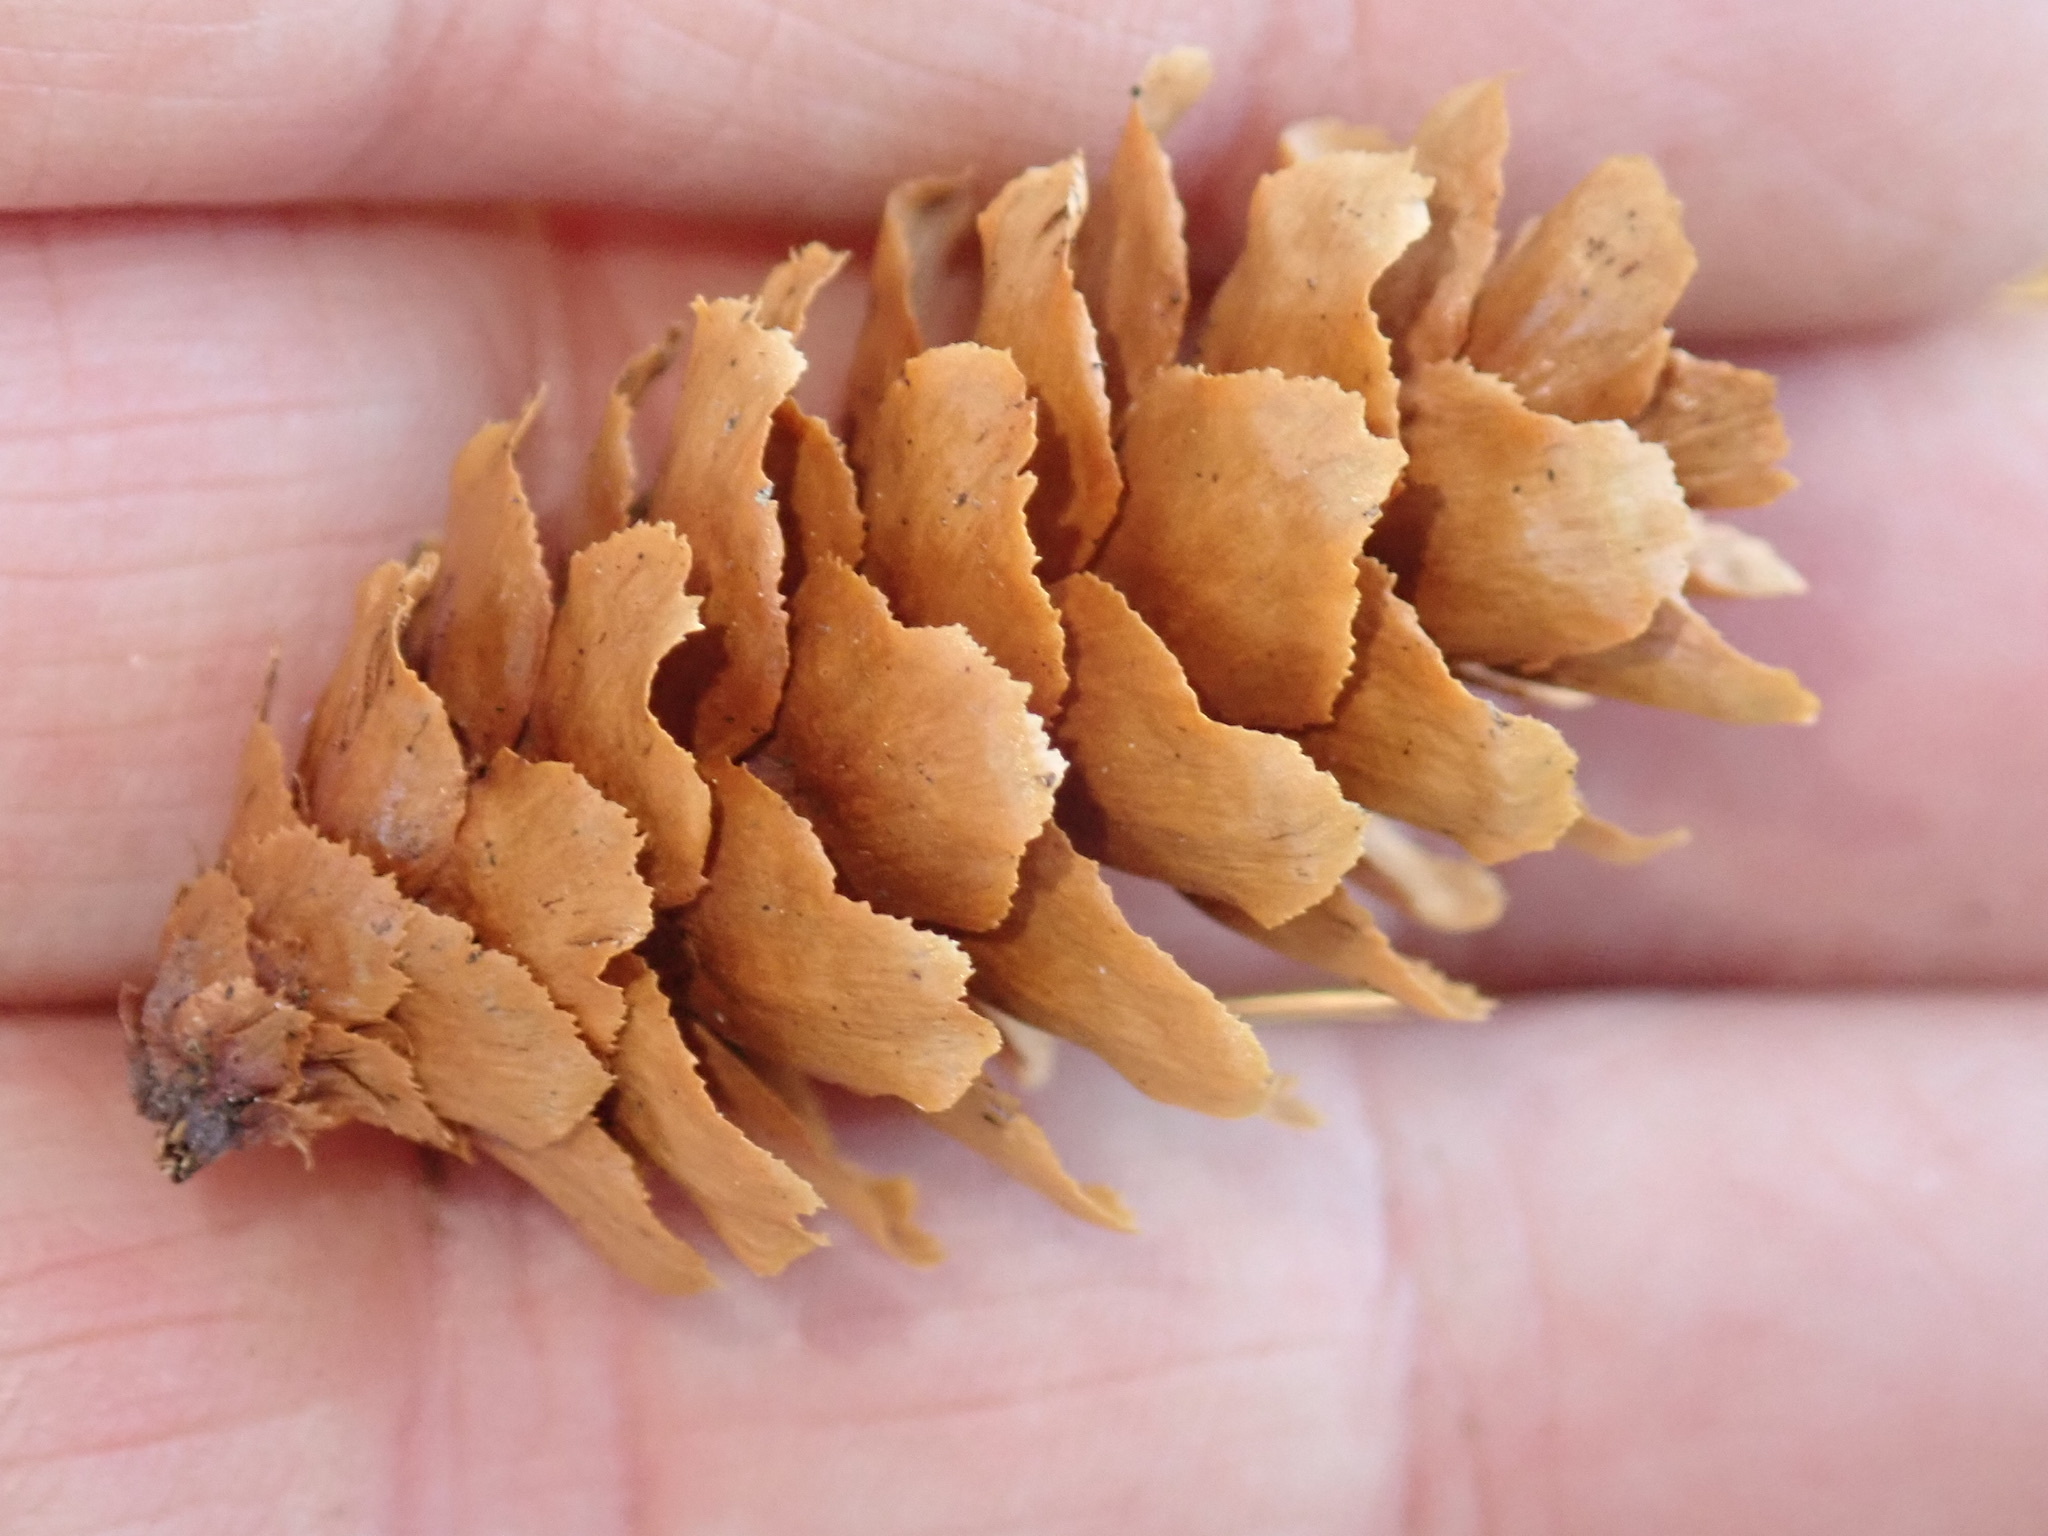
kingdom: Plantae
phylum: Tracheophyta
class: Pinopsida
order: Pinales
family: Pinaceae
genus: Picea
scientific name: Picea engelmannii
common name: Engelmann spruce
